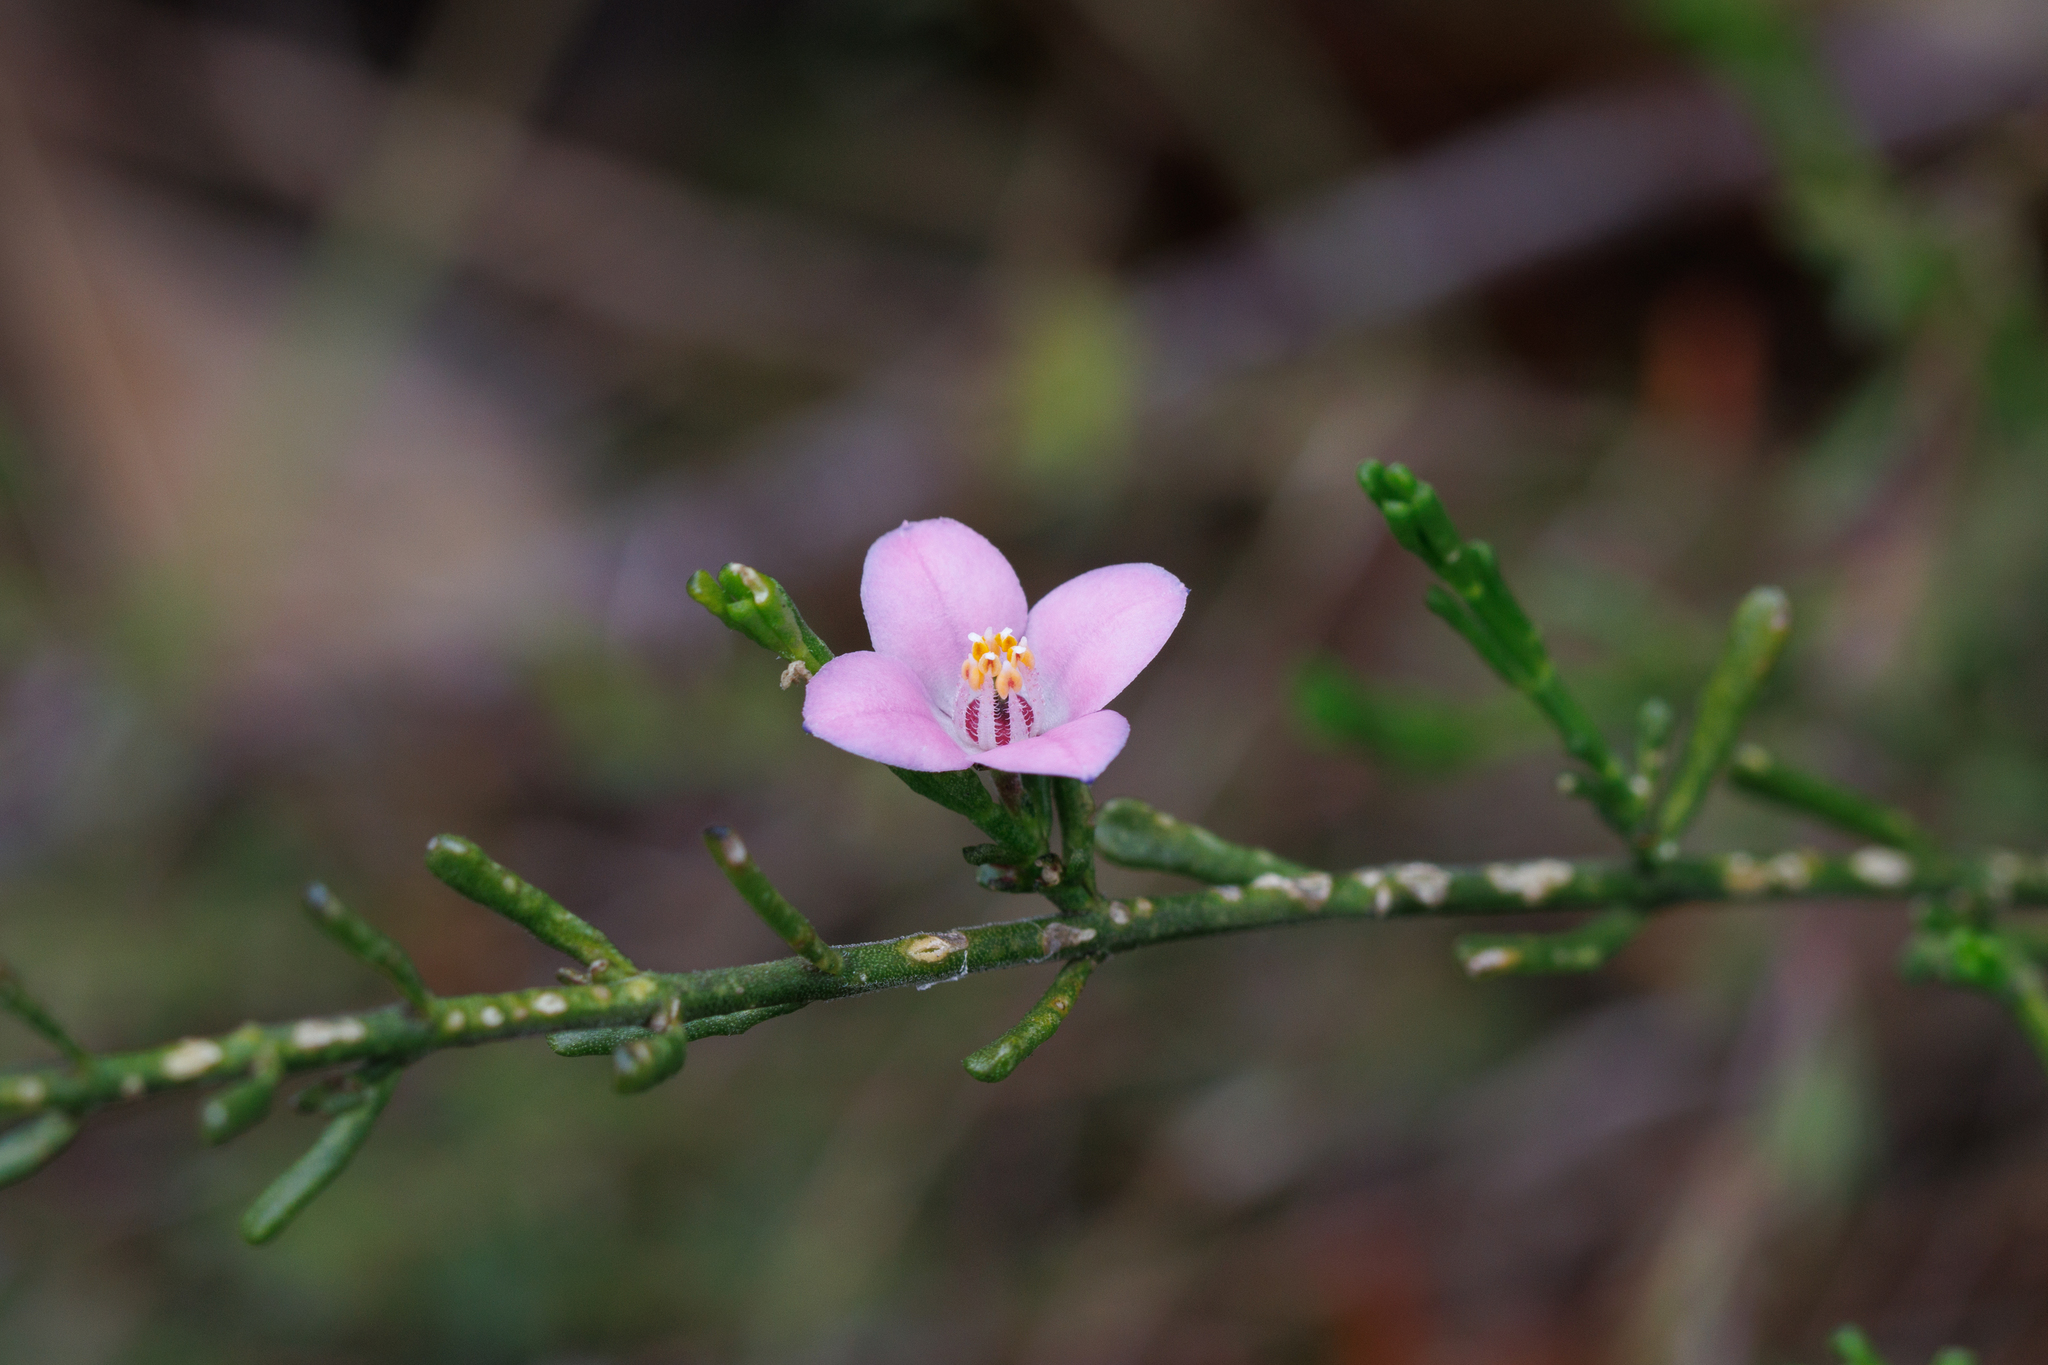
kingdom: Plantae
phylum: Tracheophyta
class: Magnoliopsida
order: Sapindales
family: Rutaceae
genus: Cyanothamnus
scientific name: Cyanothamnus coerulescens
